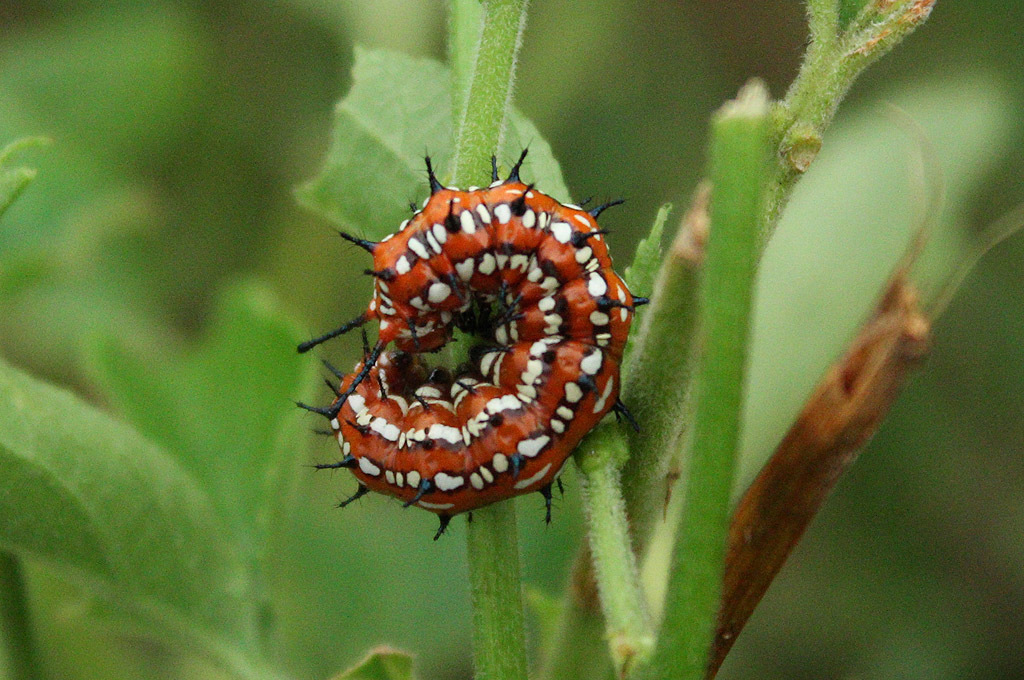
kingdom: Animalia
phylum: Arthropoda
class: Insecta
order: Lepidoptera
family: Nymphalidae
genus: Euptoieta
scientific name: Euptoieta claudia
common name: Variegated fritillary
